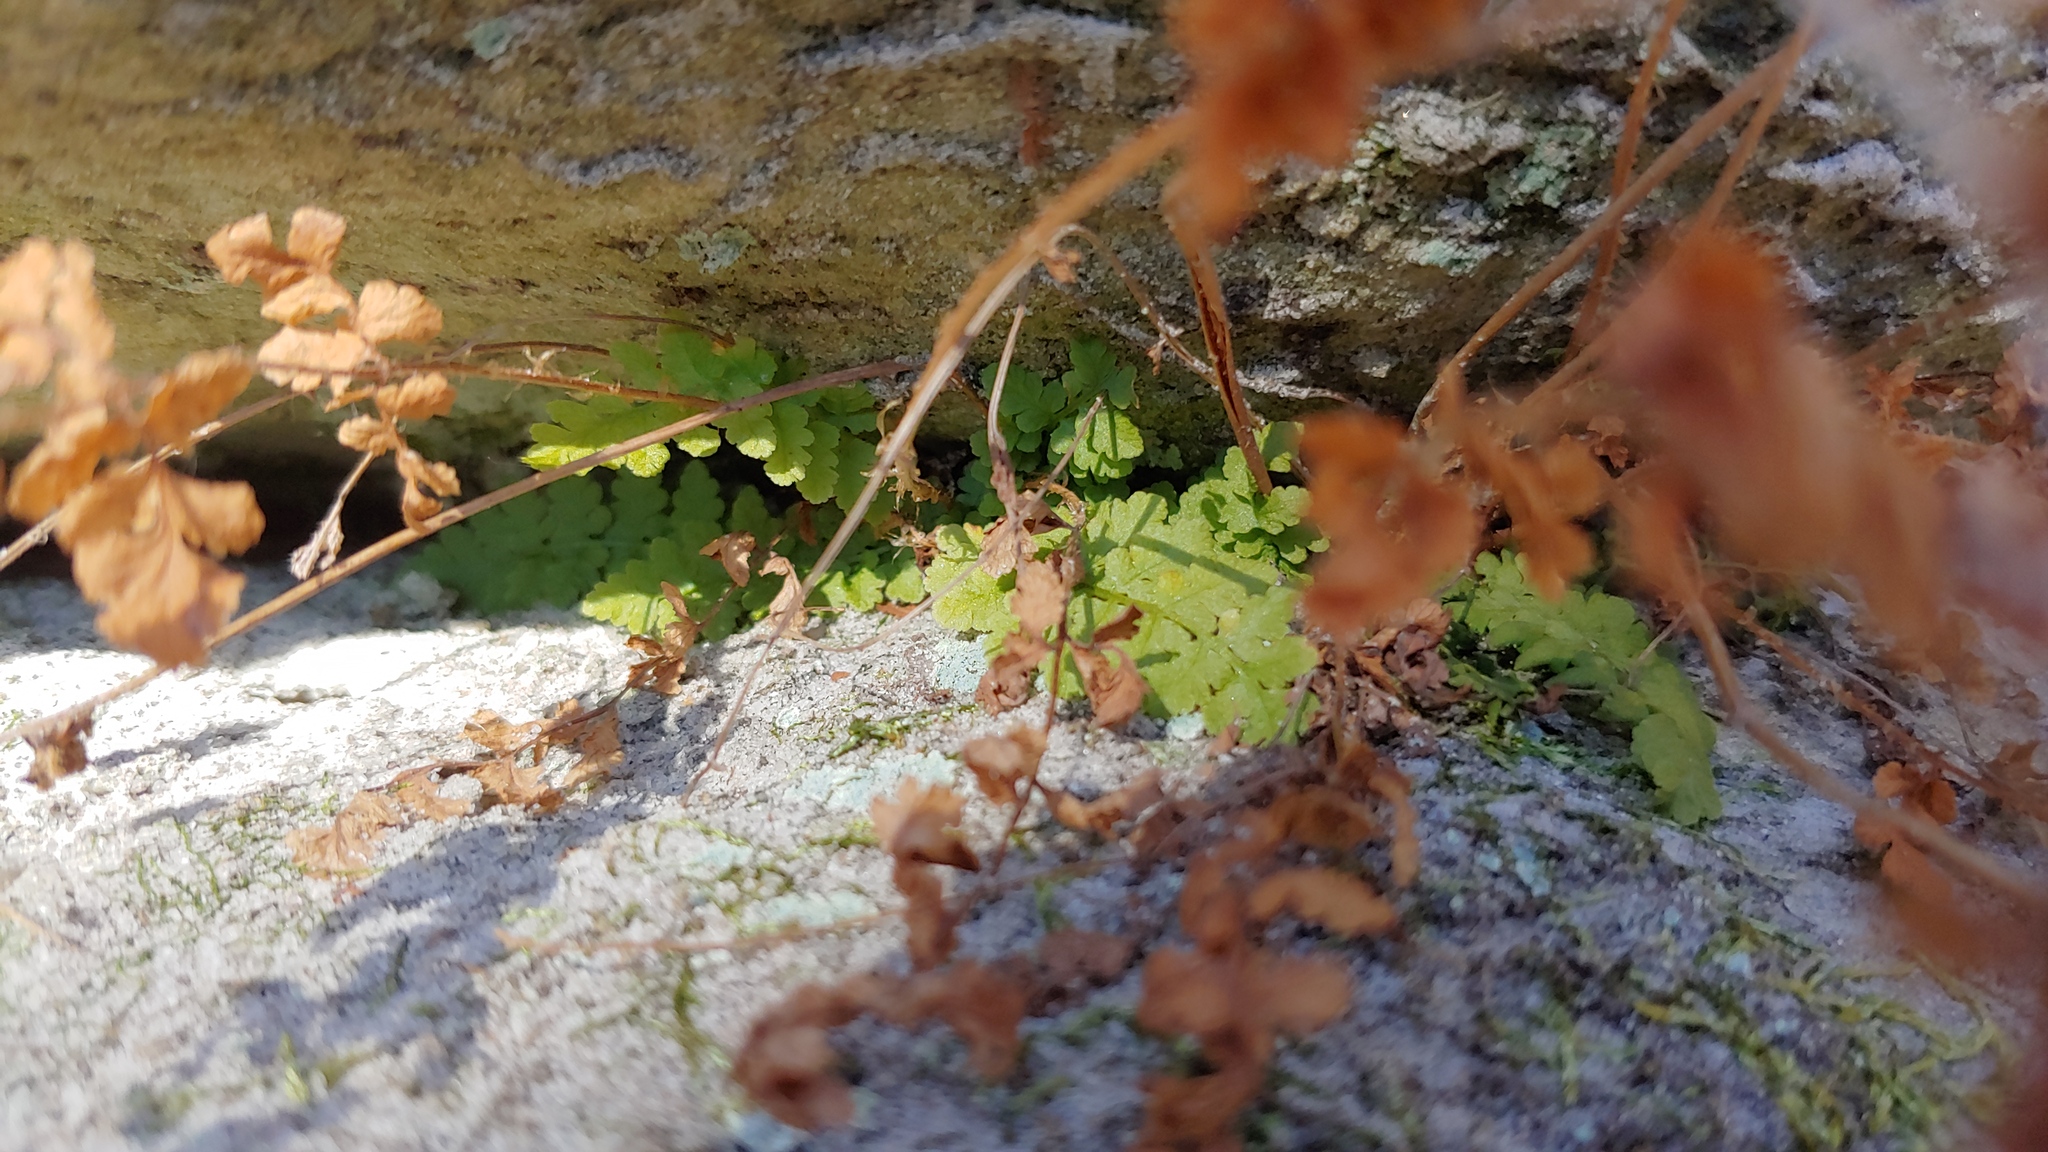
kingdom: Plantae
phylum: Tracheophyta
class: Polypodiopsida
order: Polypodiales
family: Woodsiaceae
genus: Physematium
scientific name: Physematium obtusum
